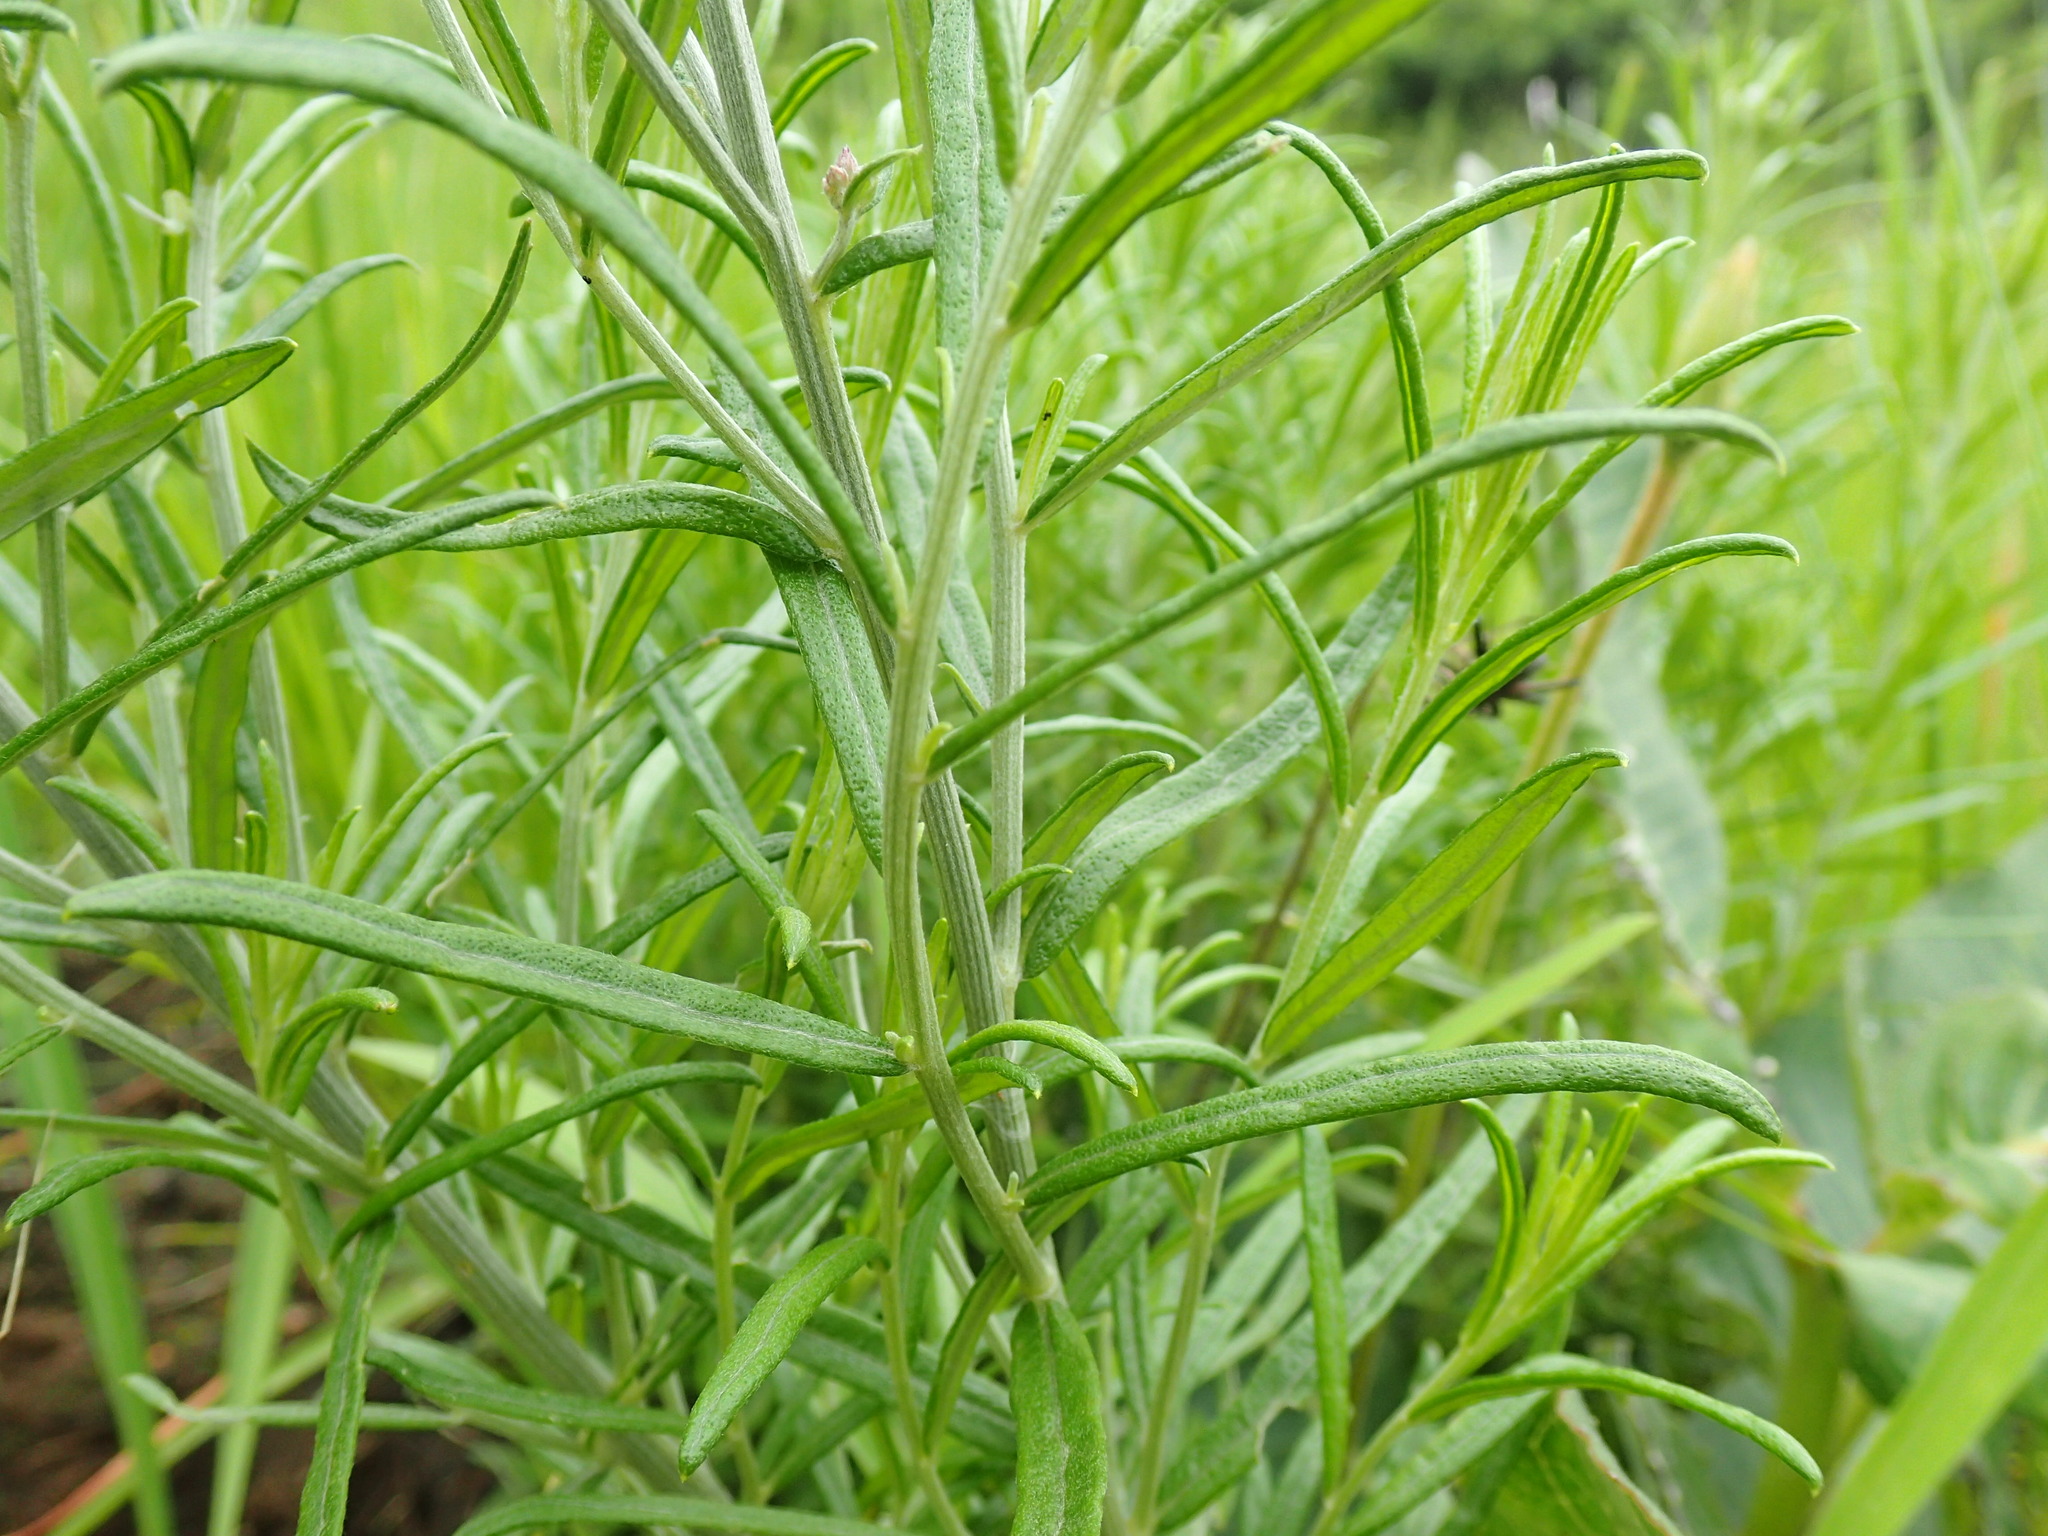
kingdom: Plantae
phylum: Tracheophyta
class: Magnoliopsida
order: Asterales
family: Asteraceae
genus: Hilliardiella
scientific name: Hilliardiella capensis
